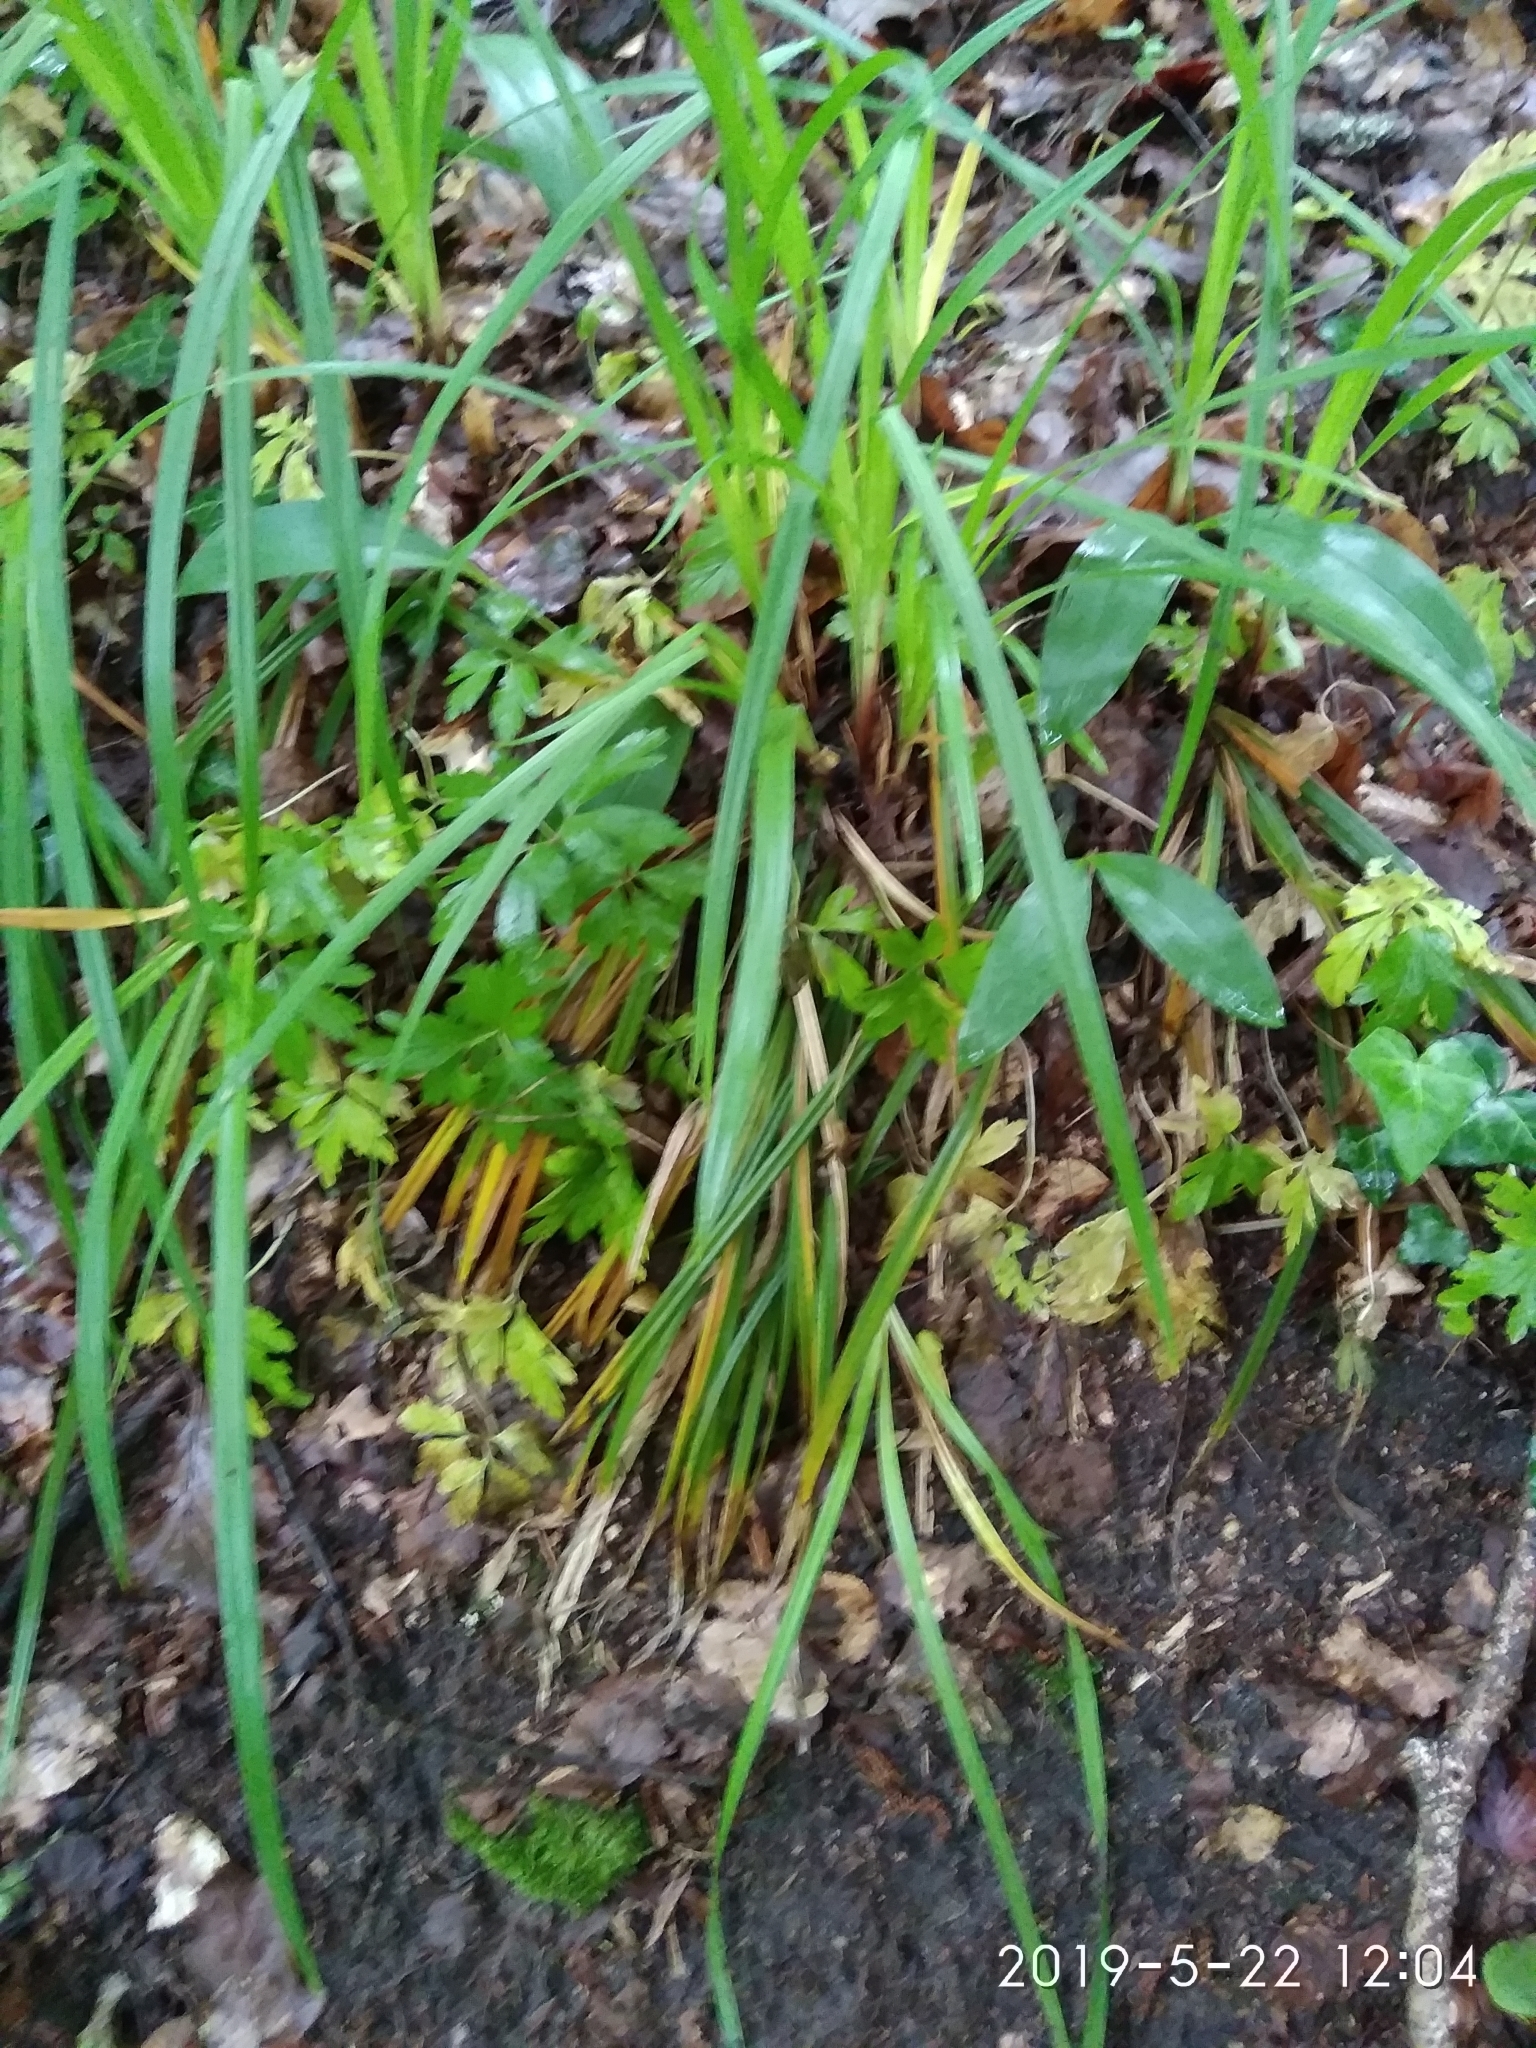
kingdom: Plantae
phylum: Tracheophyta
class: Liliopsida
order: Poales
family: Cyperaceae
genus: Carex
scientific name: Carex pilosa
